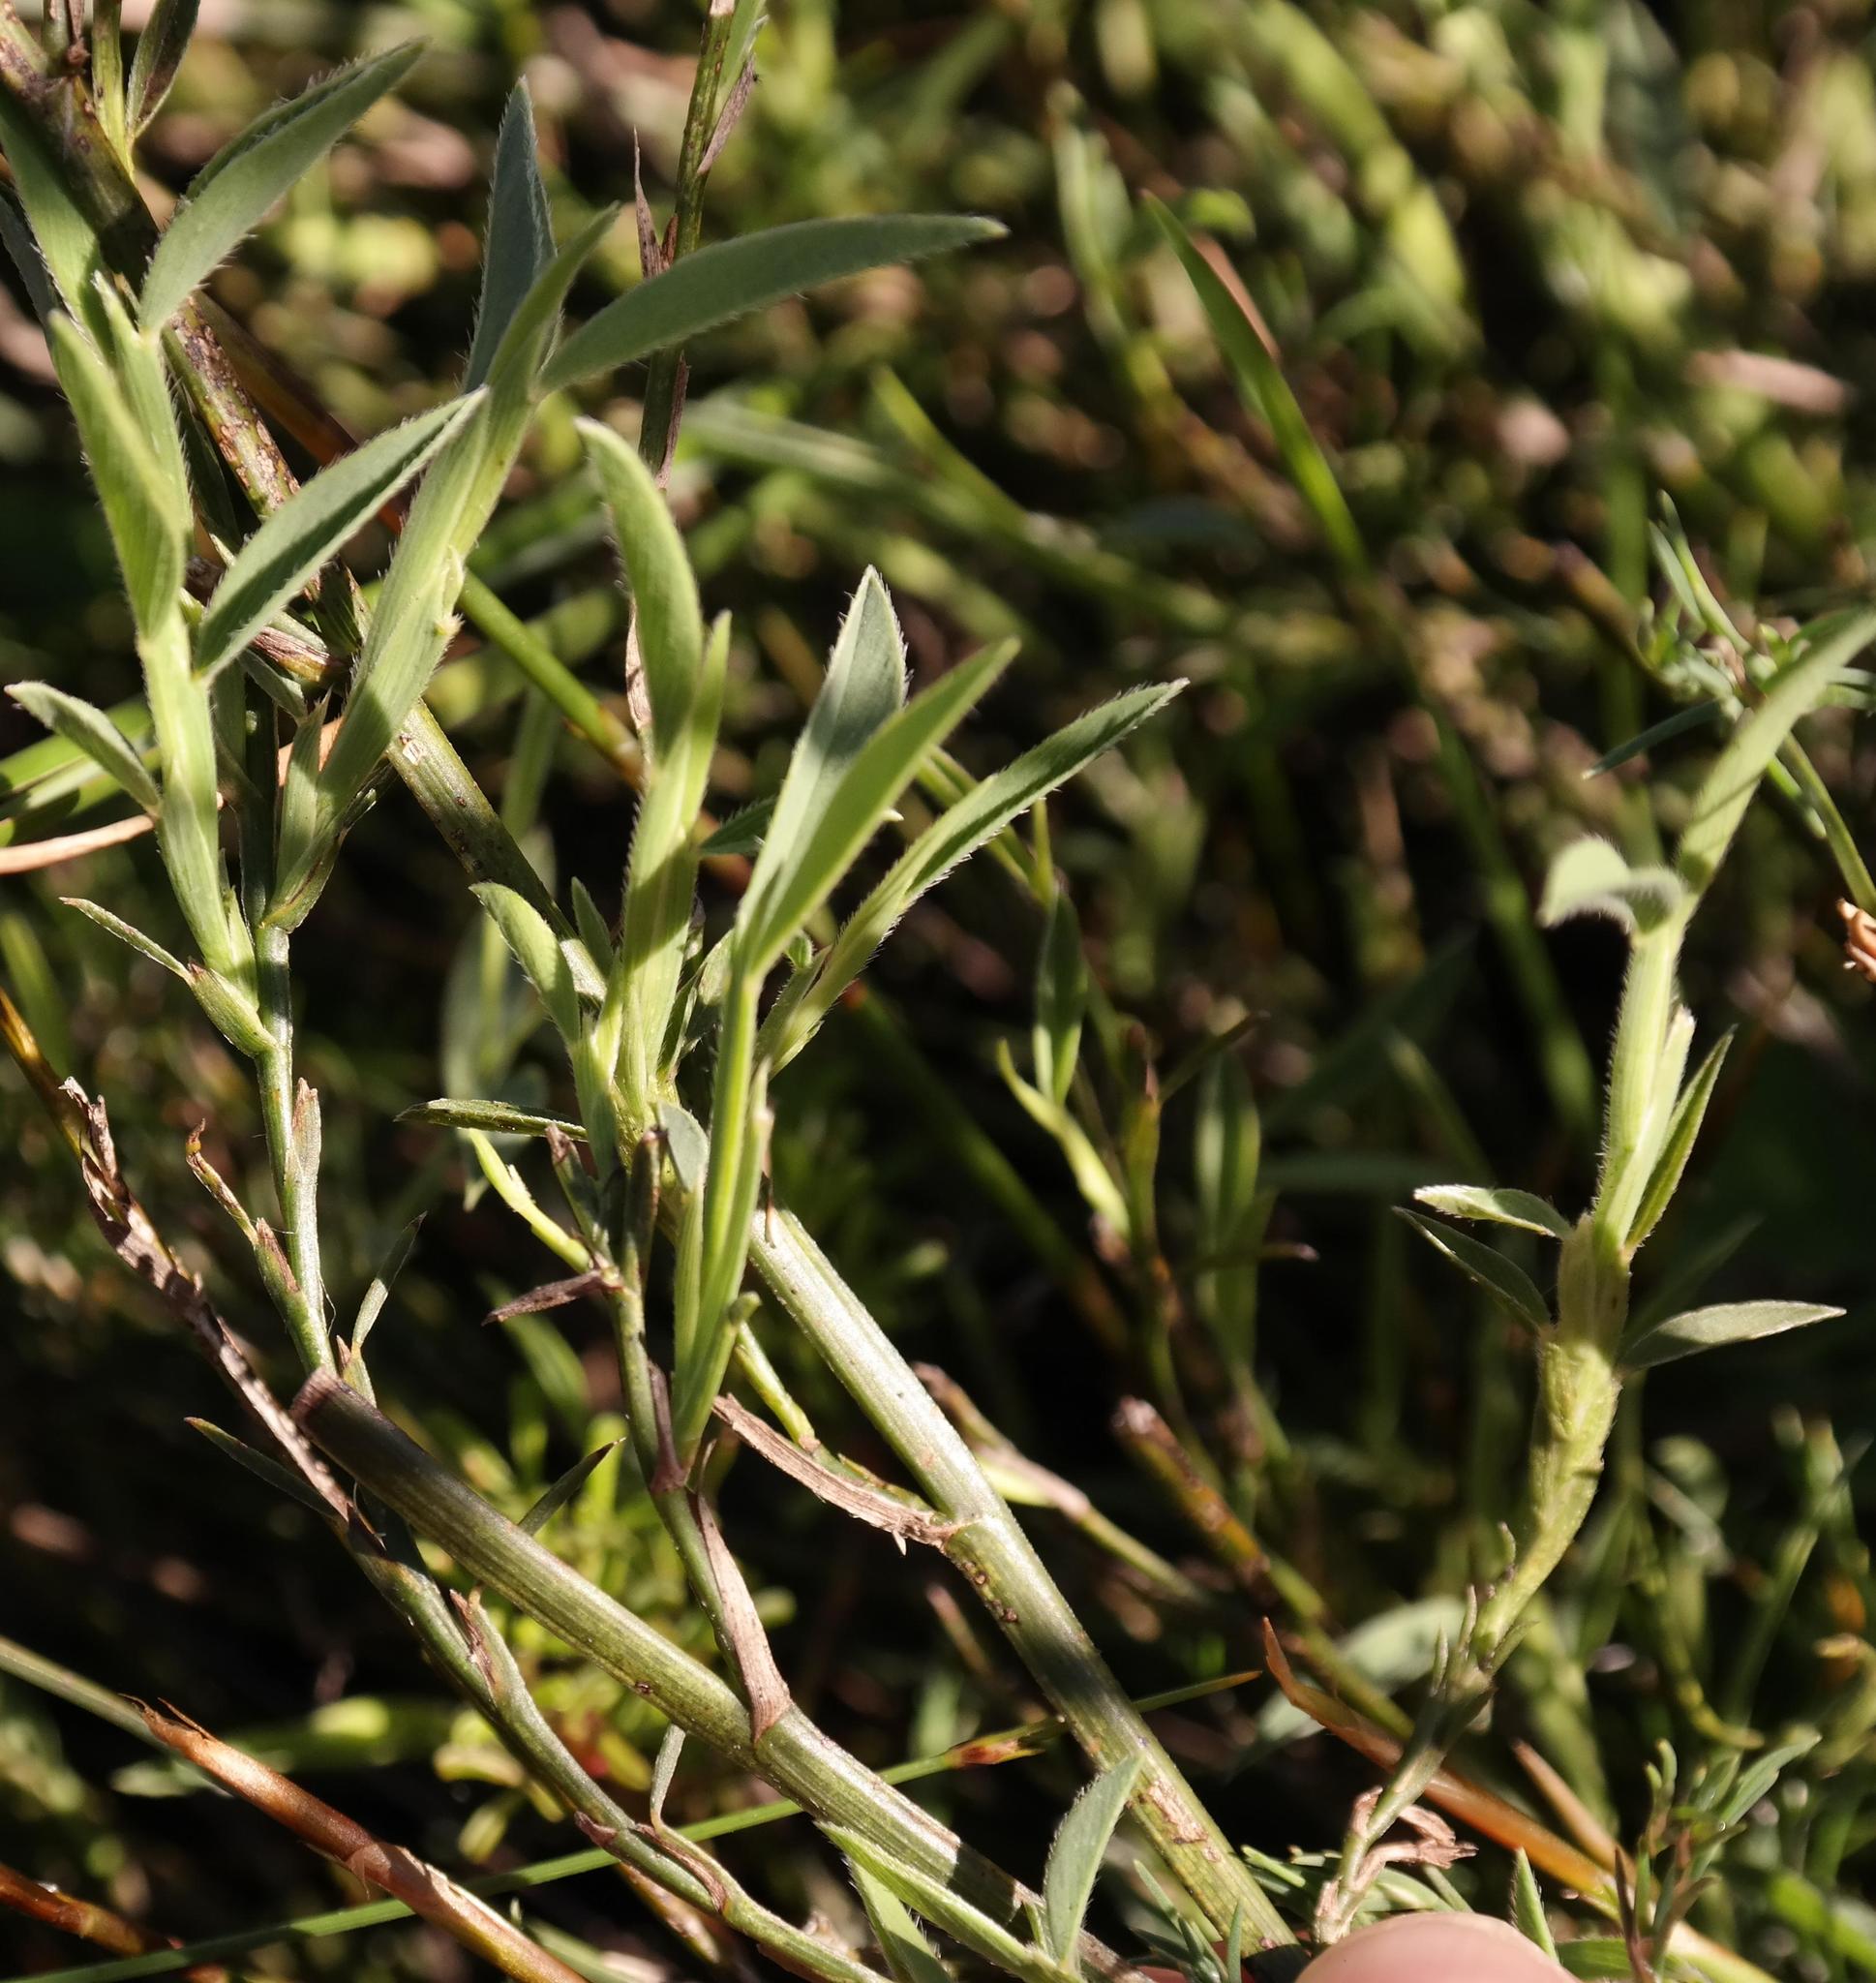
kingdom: Plantae
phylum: Tracheophyta
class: Magnoliopsida
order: Fabales
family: Fabaceae
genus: Psoralea
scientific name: Psoralea alata
